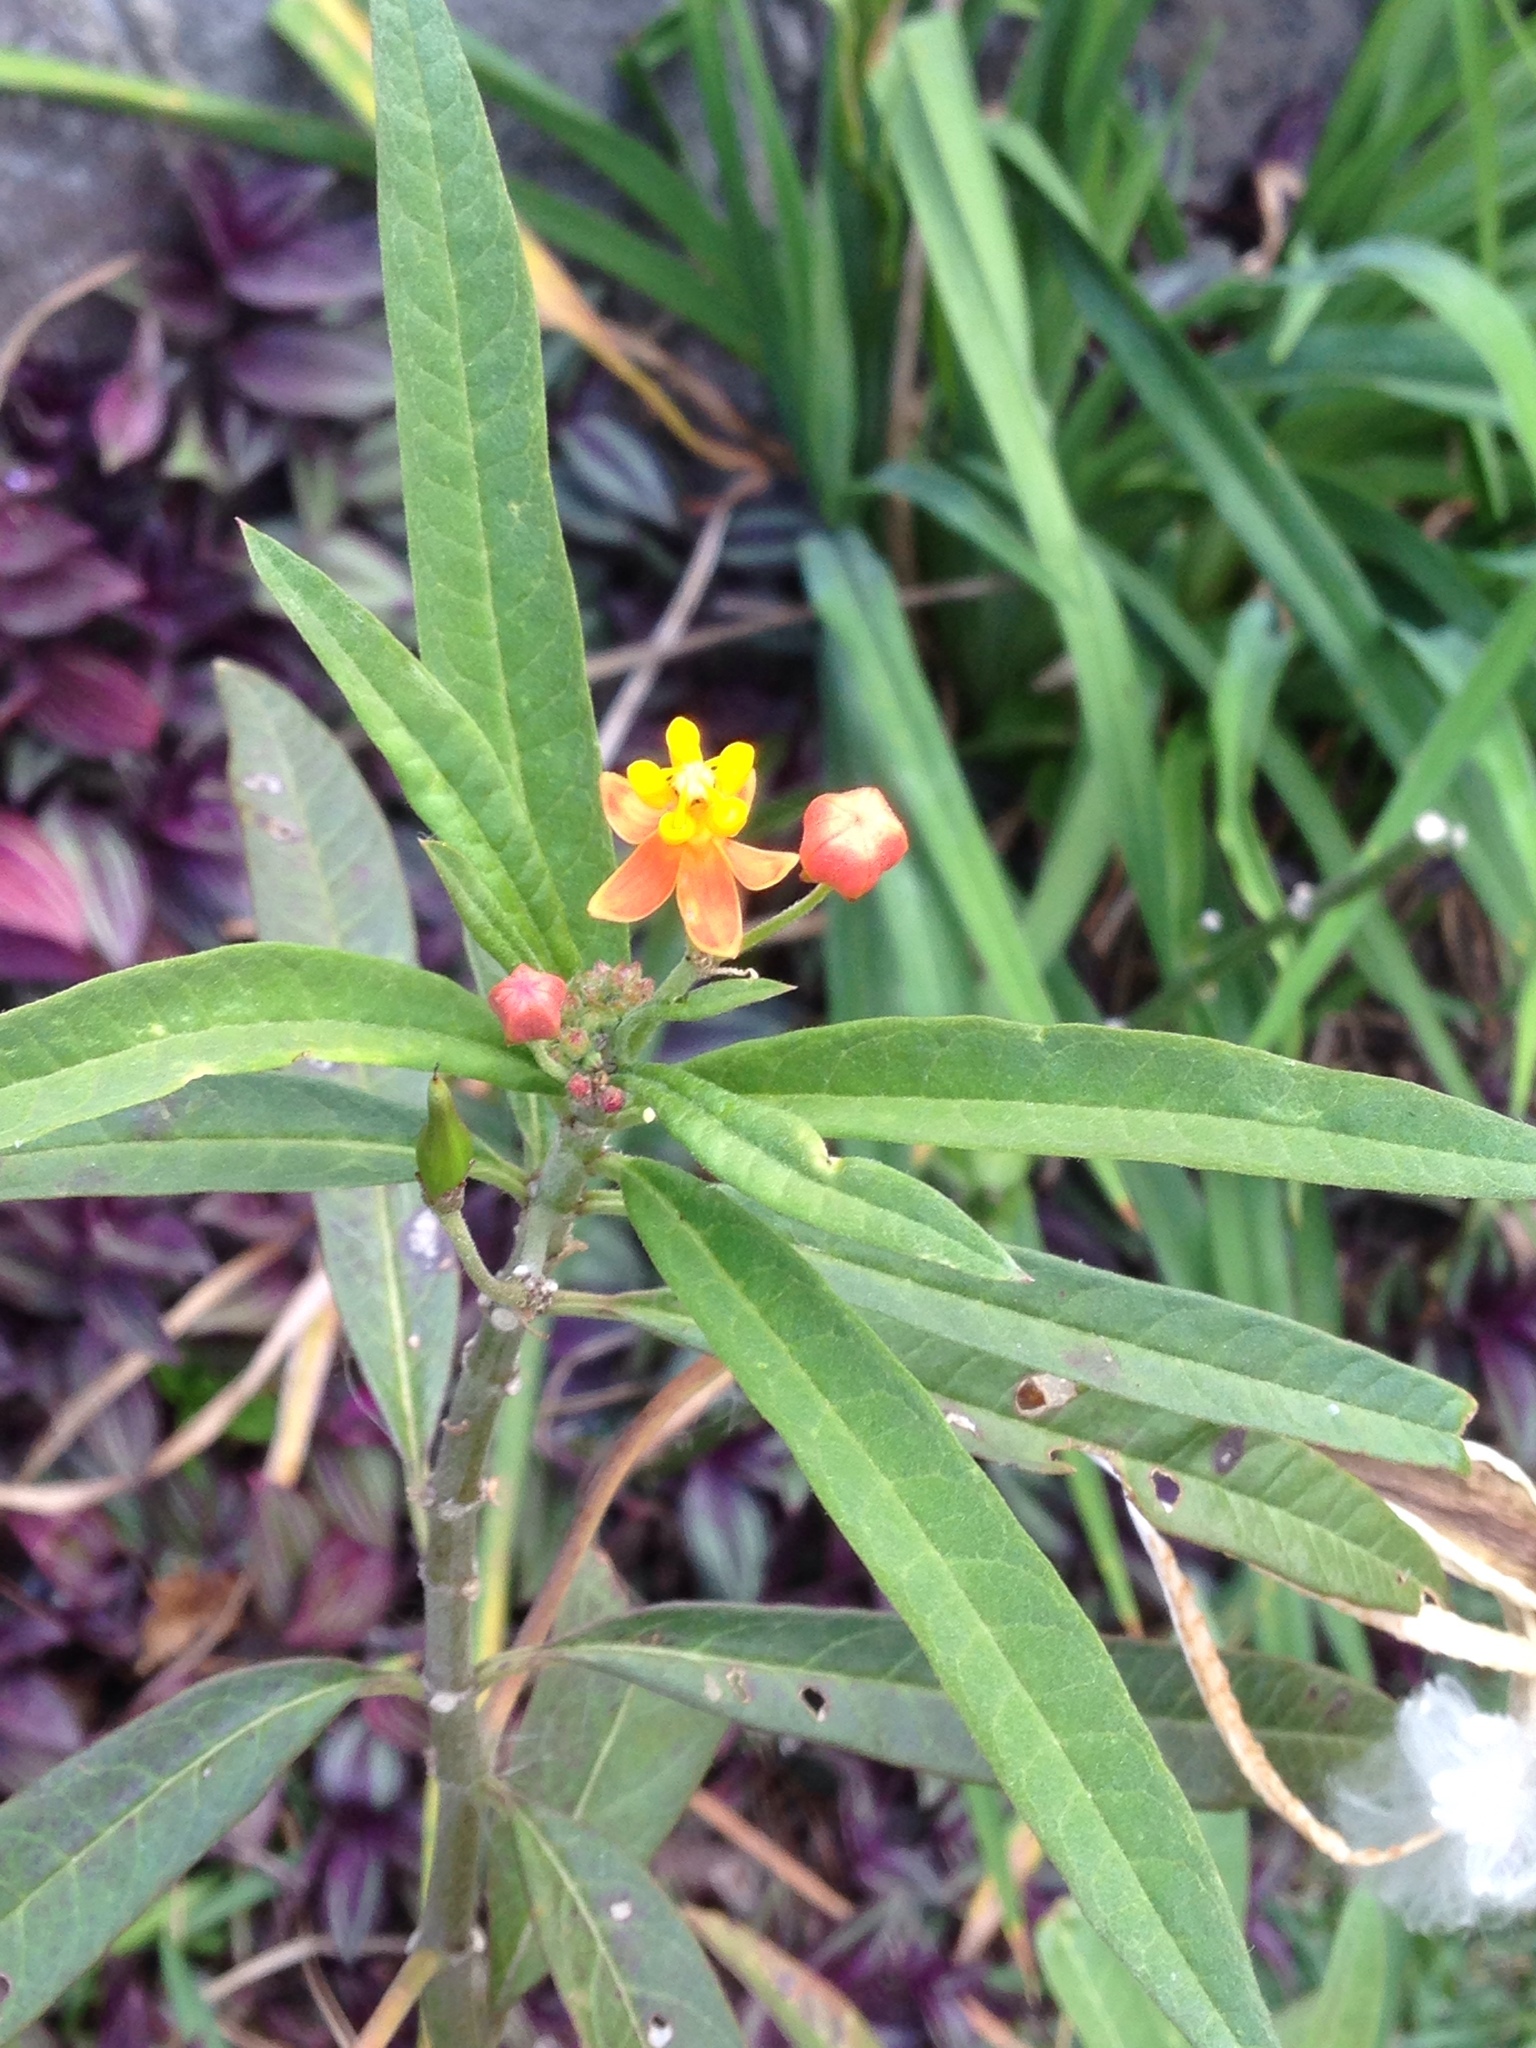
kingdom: Plantae
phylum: Tracheophyta
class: Magnoliopsida
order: Gentianales
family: Apocynaceae
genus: Asclepias
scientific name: Asclepias curassavica
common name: Bloodflower
